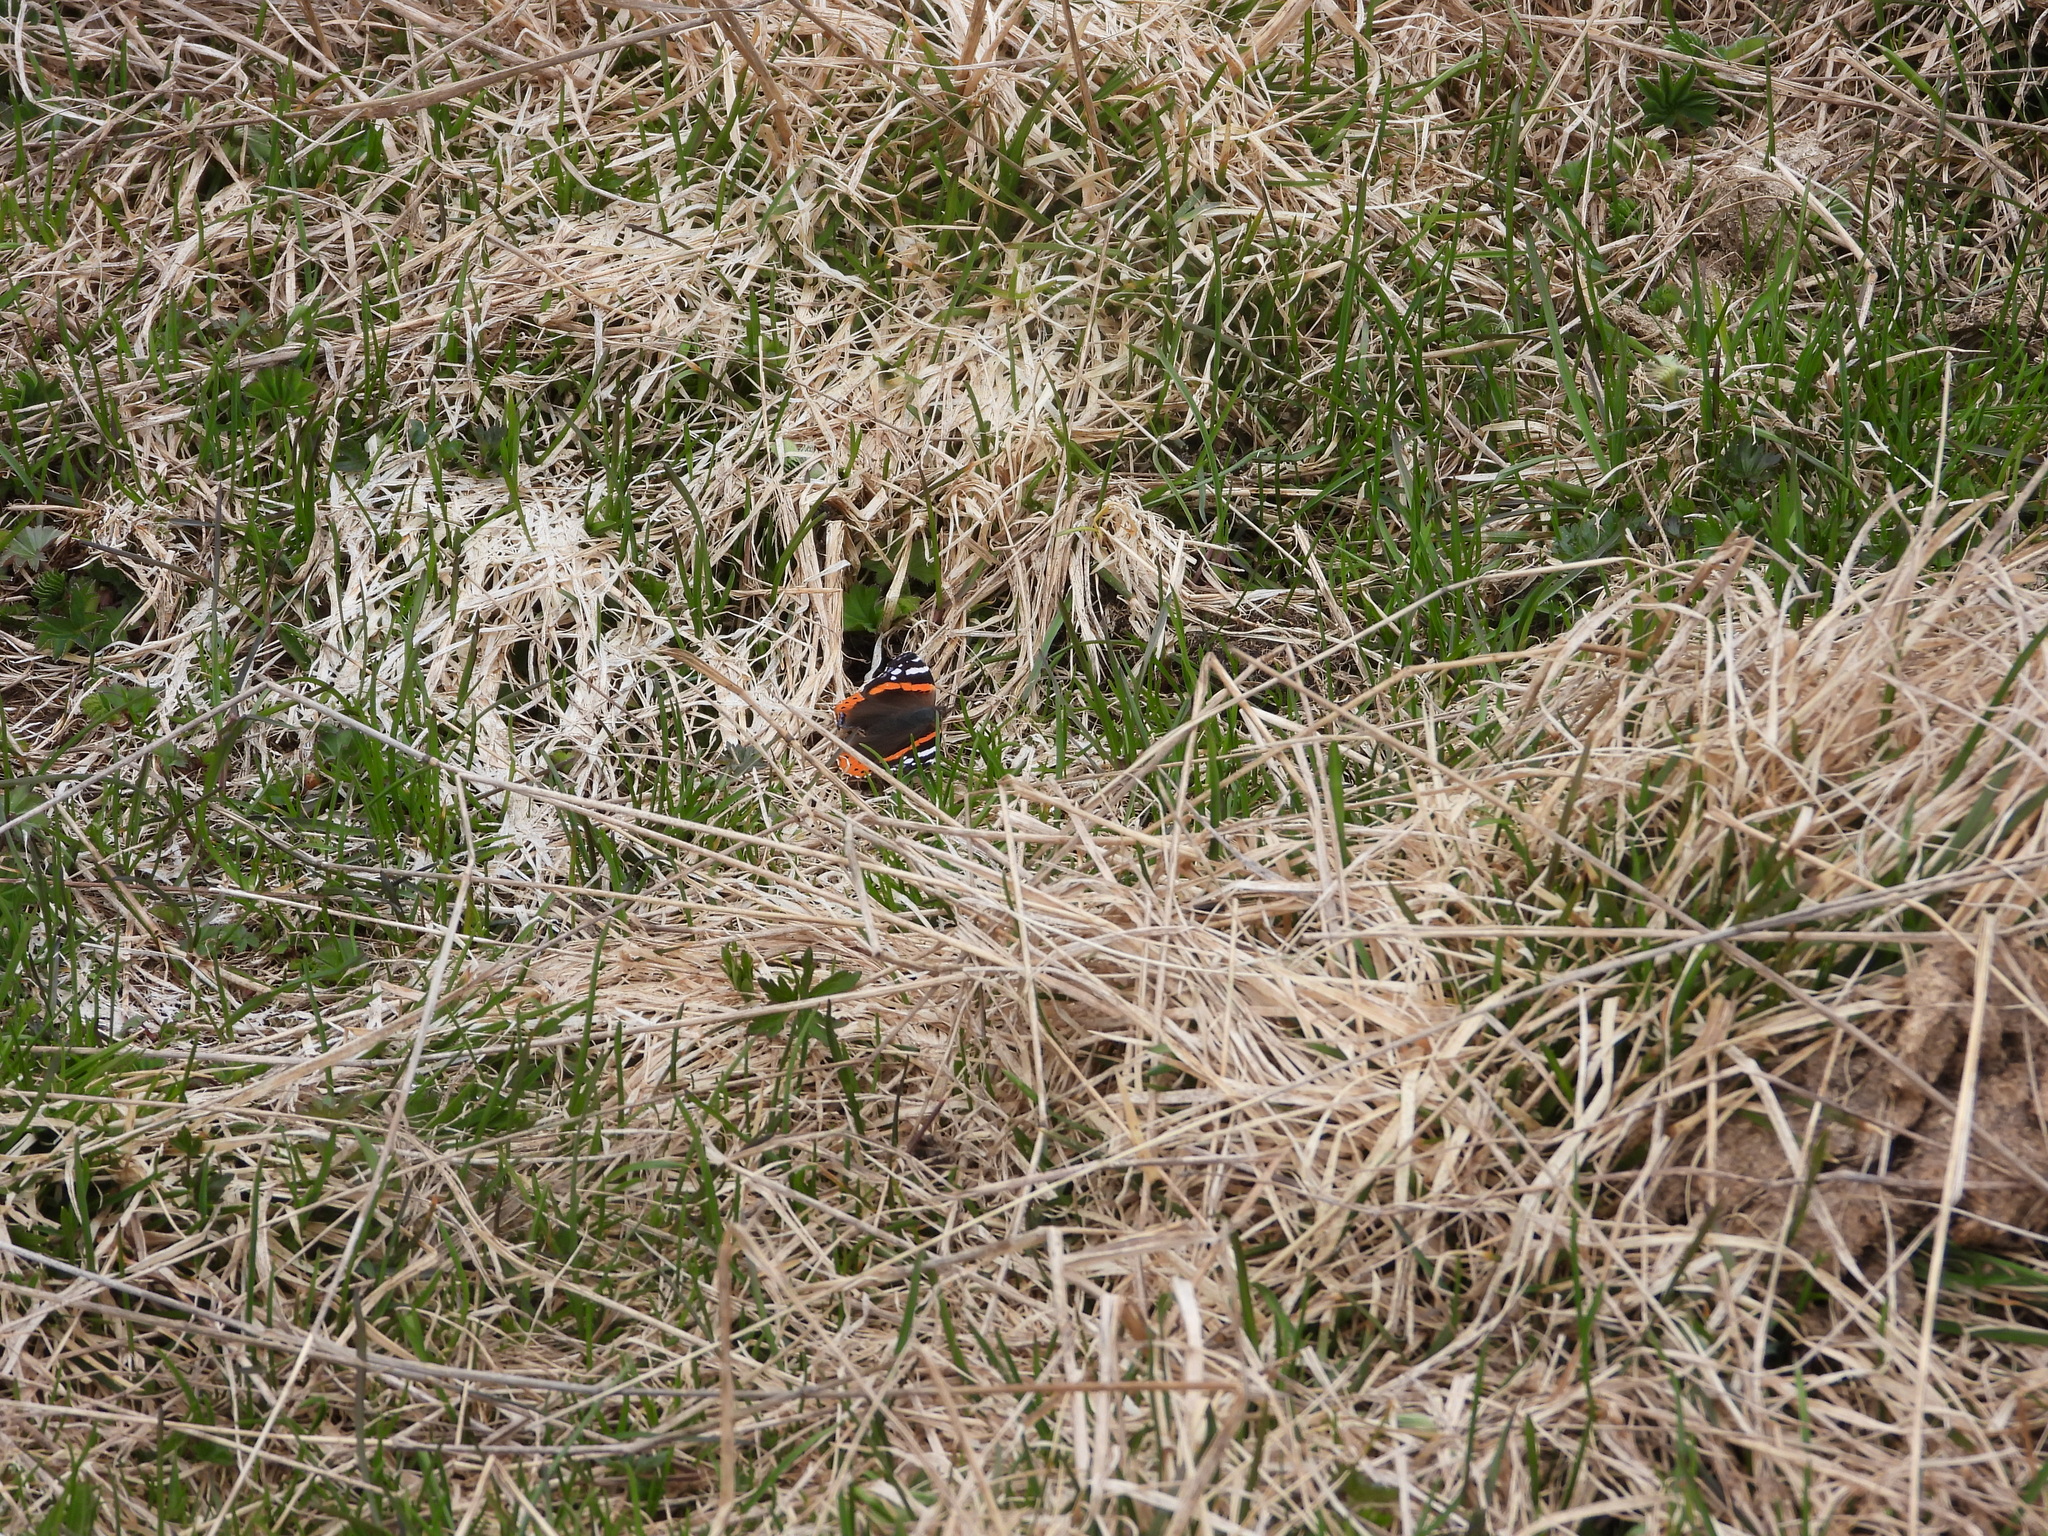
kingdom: Animalia
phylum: Arthropoda
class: Insecta
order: Lepidoptera
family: Nymphalidae
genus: Vanessa
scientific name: Vanessa atalanta
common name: Red admiral
